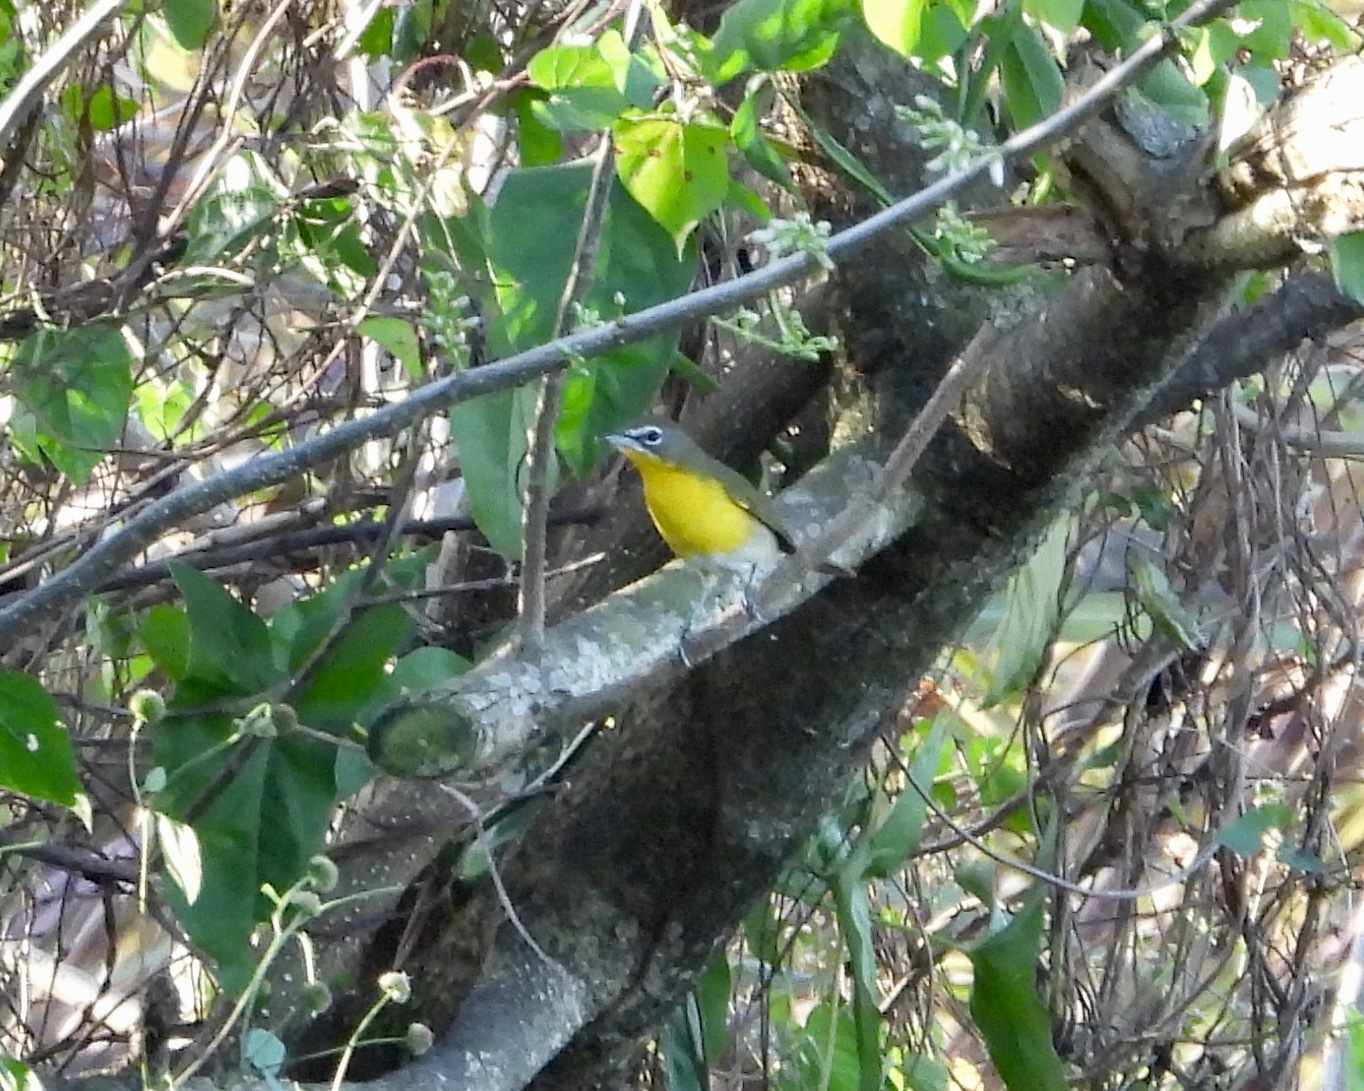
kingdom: Animalia
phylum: Chordata
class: Aves
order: Passeriformes
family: Parulidae
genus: Icteria
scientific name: Icteria virens
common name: Yellow-breasted chat
